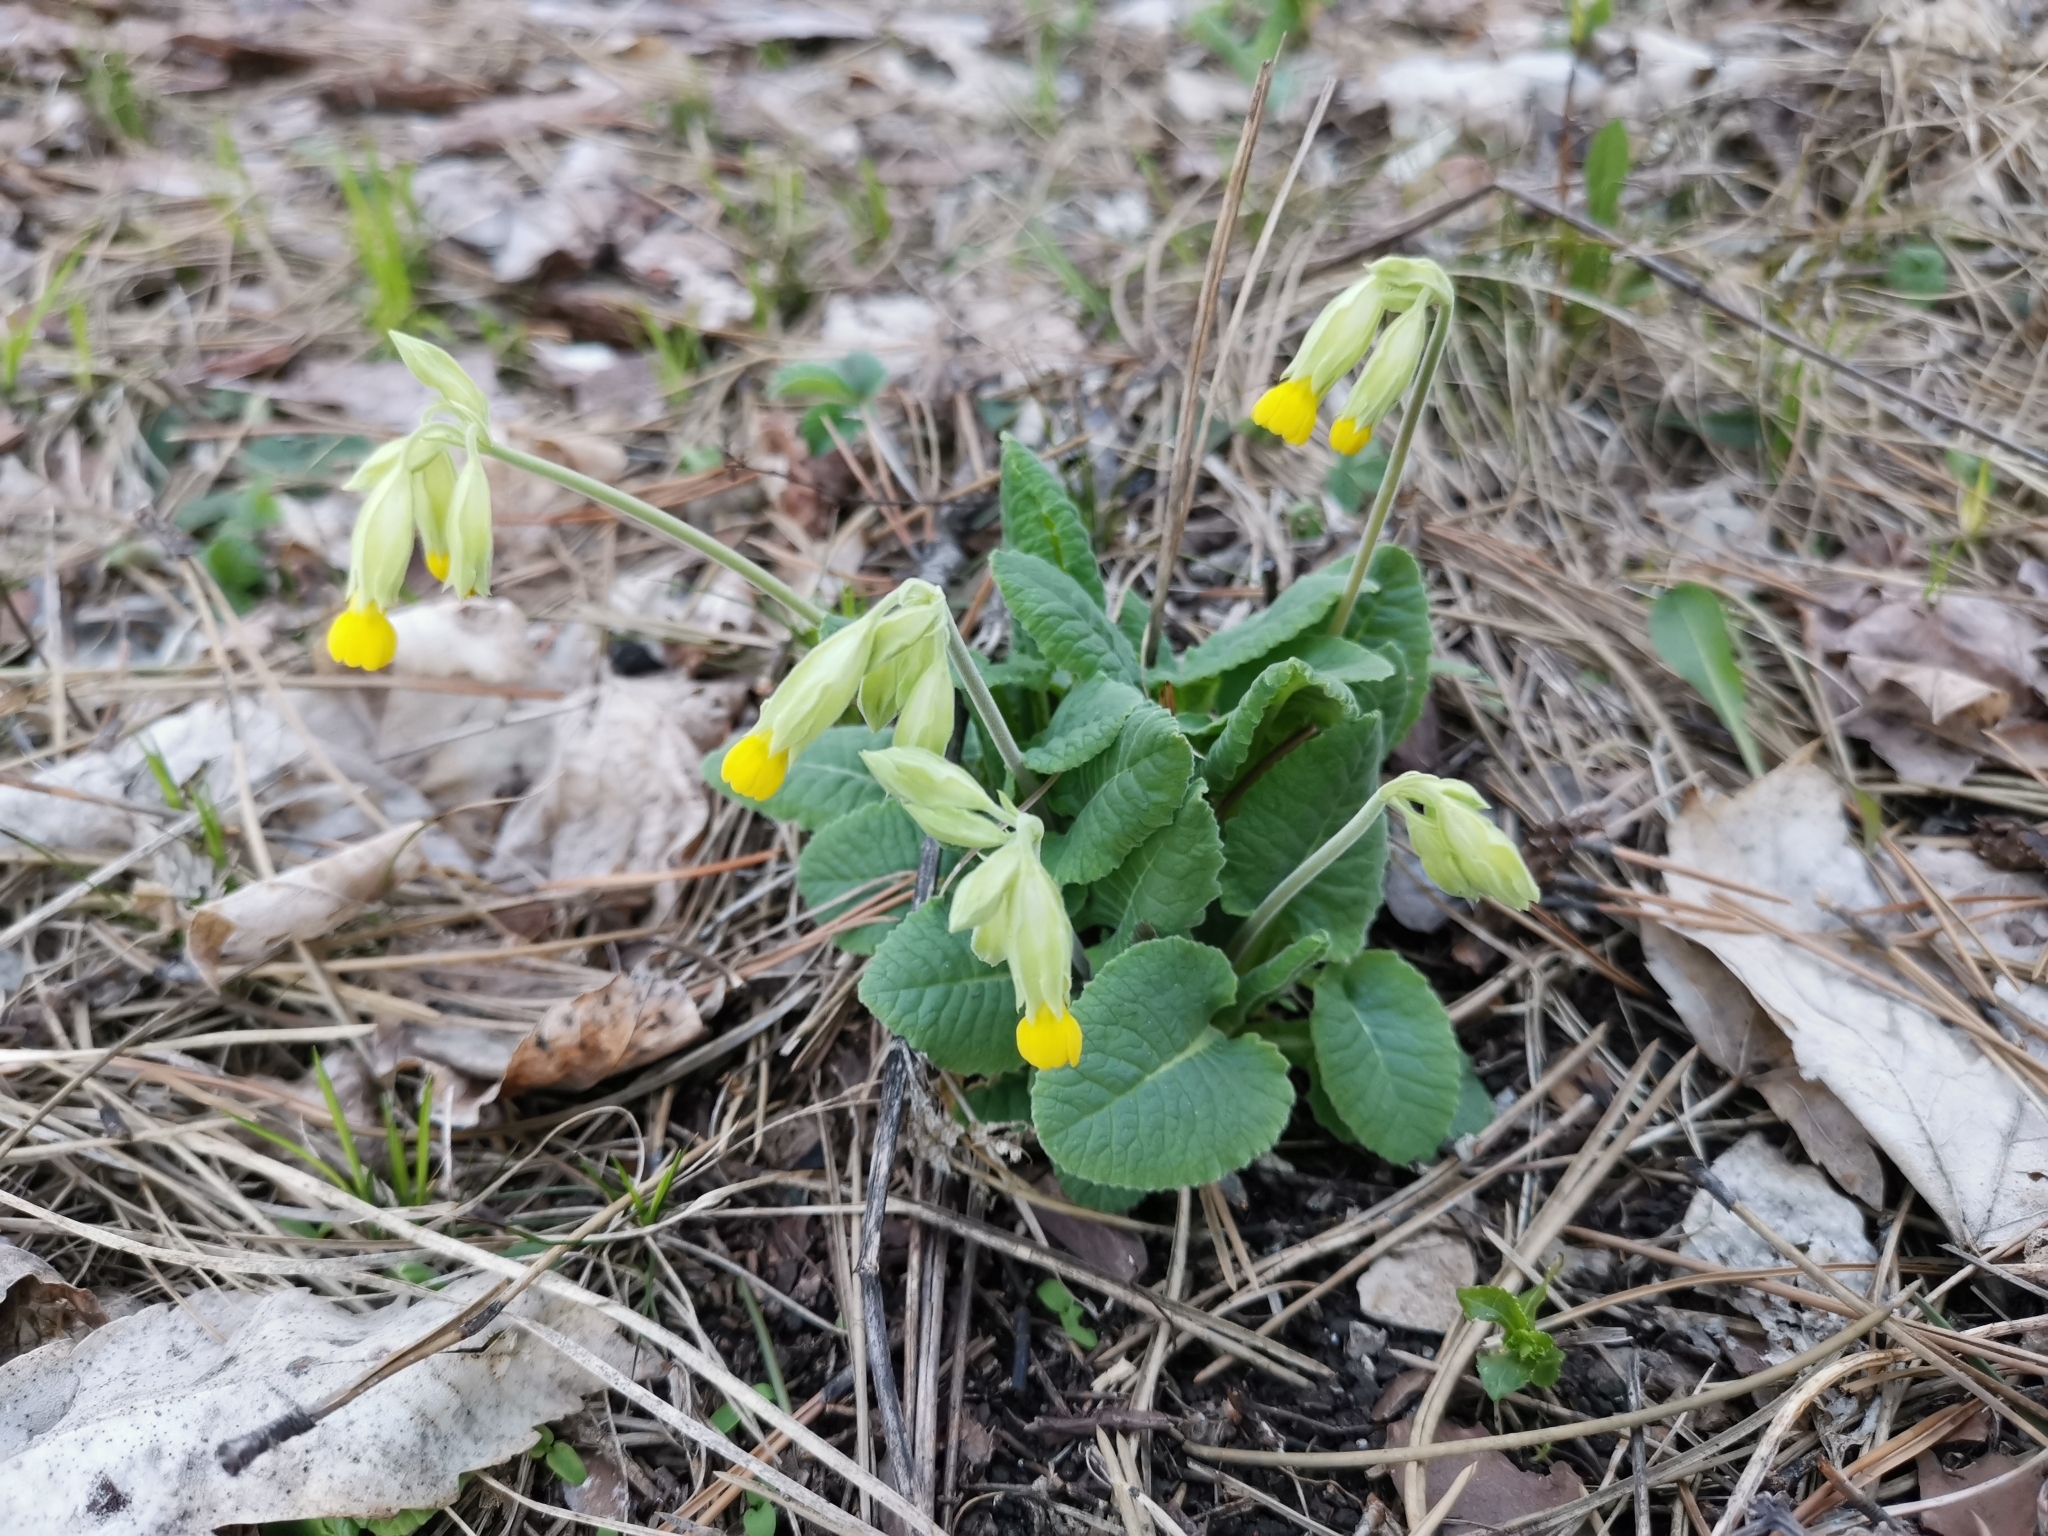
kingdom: Plantae
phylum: Tracheophyta
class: Magnoliopsida
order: Ericales
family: Primulaceae
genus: Primula
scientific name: Primula veris
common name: Cowslip
